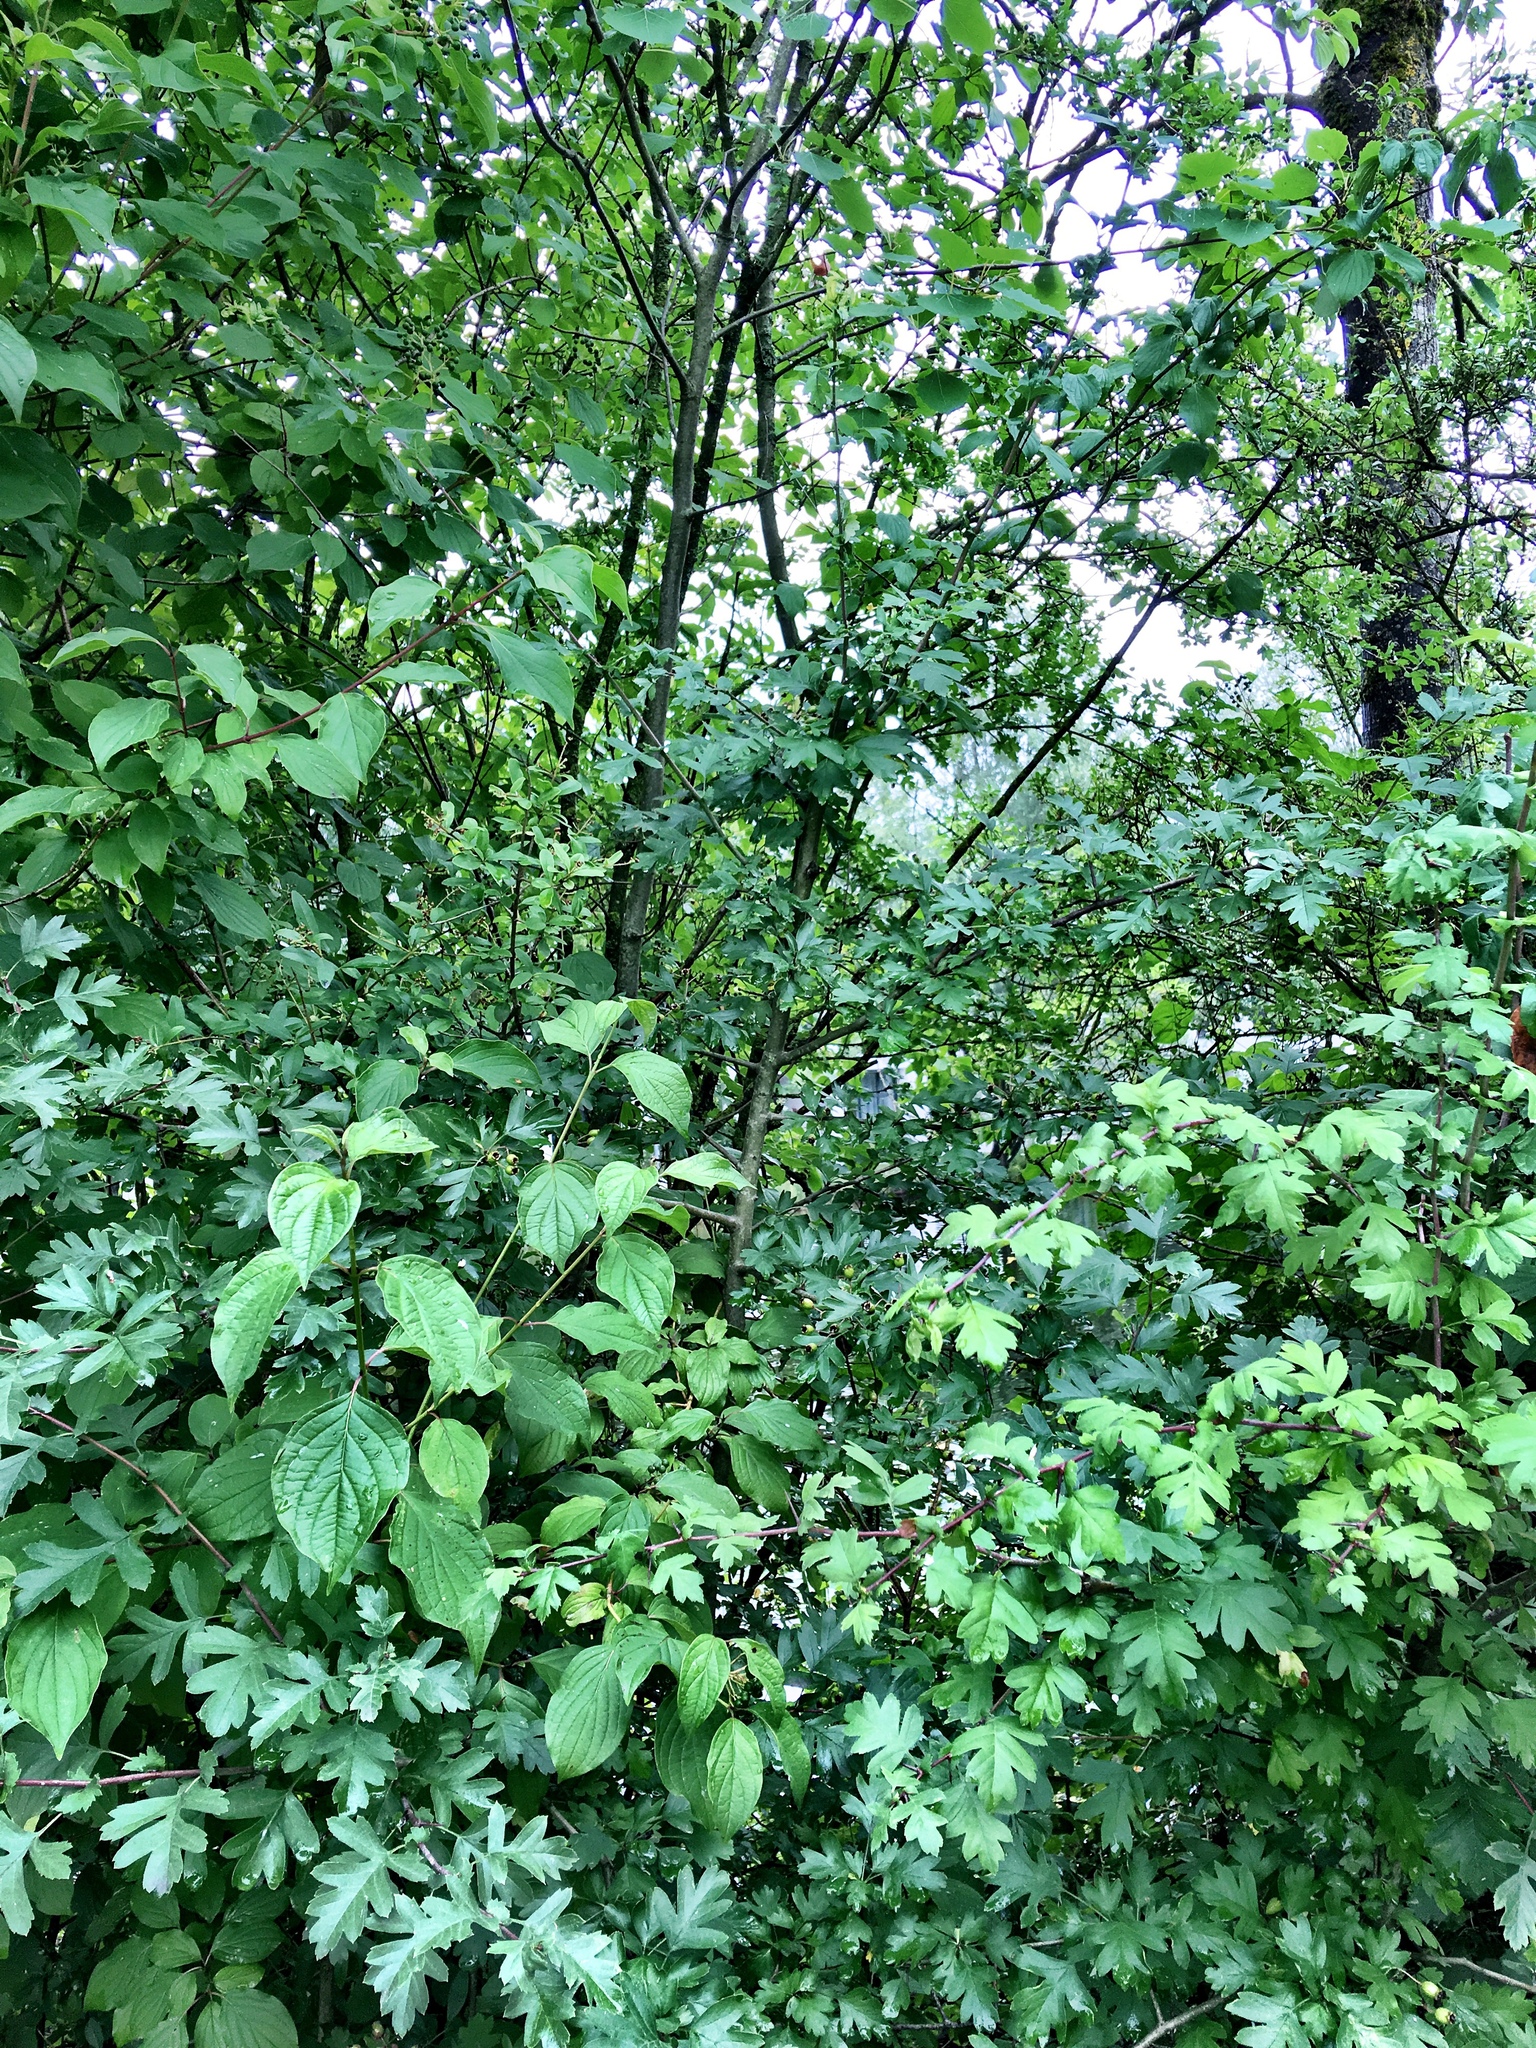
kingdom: Plantae
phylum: Tracheophyta
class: Magnoliopsida
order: Rosales
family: Rosaceae
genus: Crataegus
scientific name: Crataegus monogyna
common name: Hawthorn
